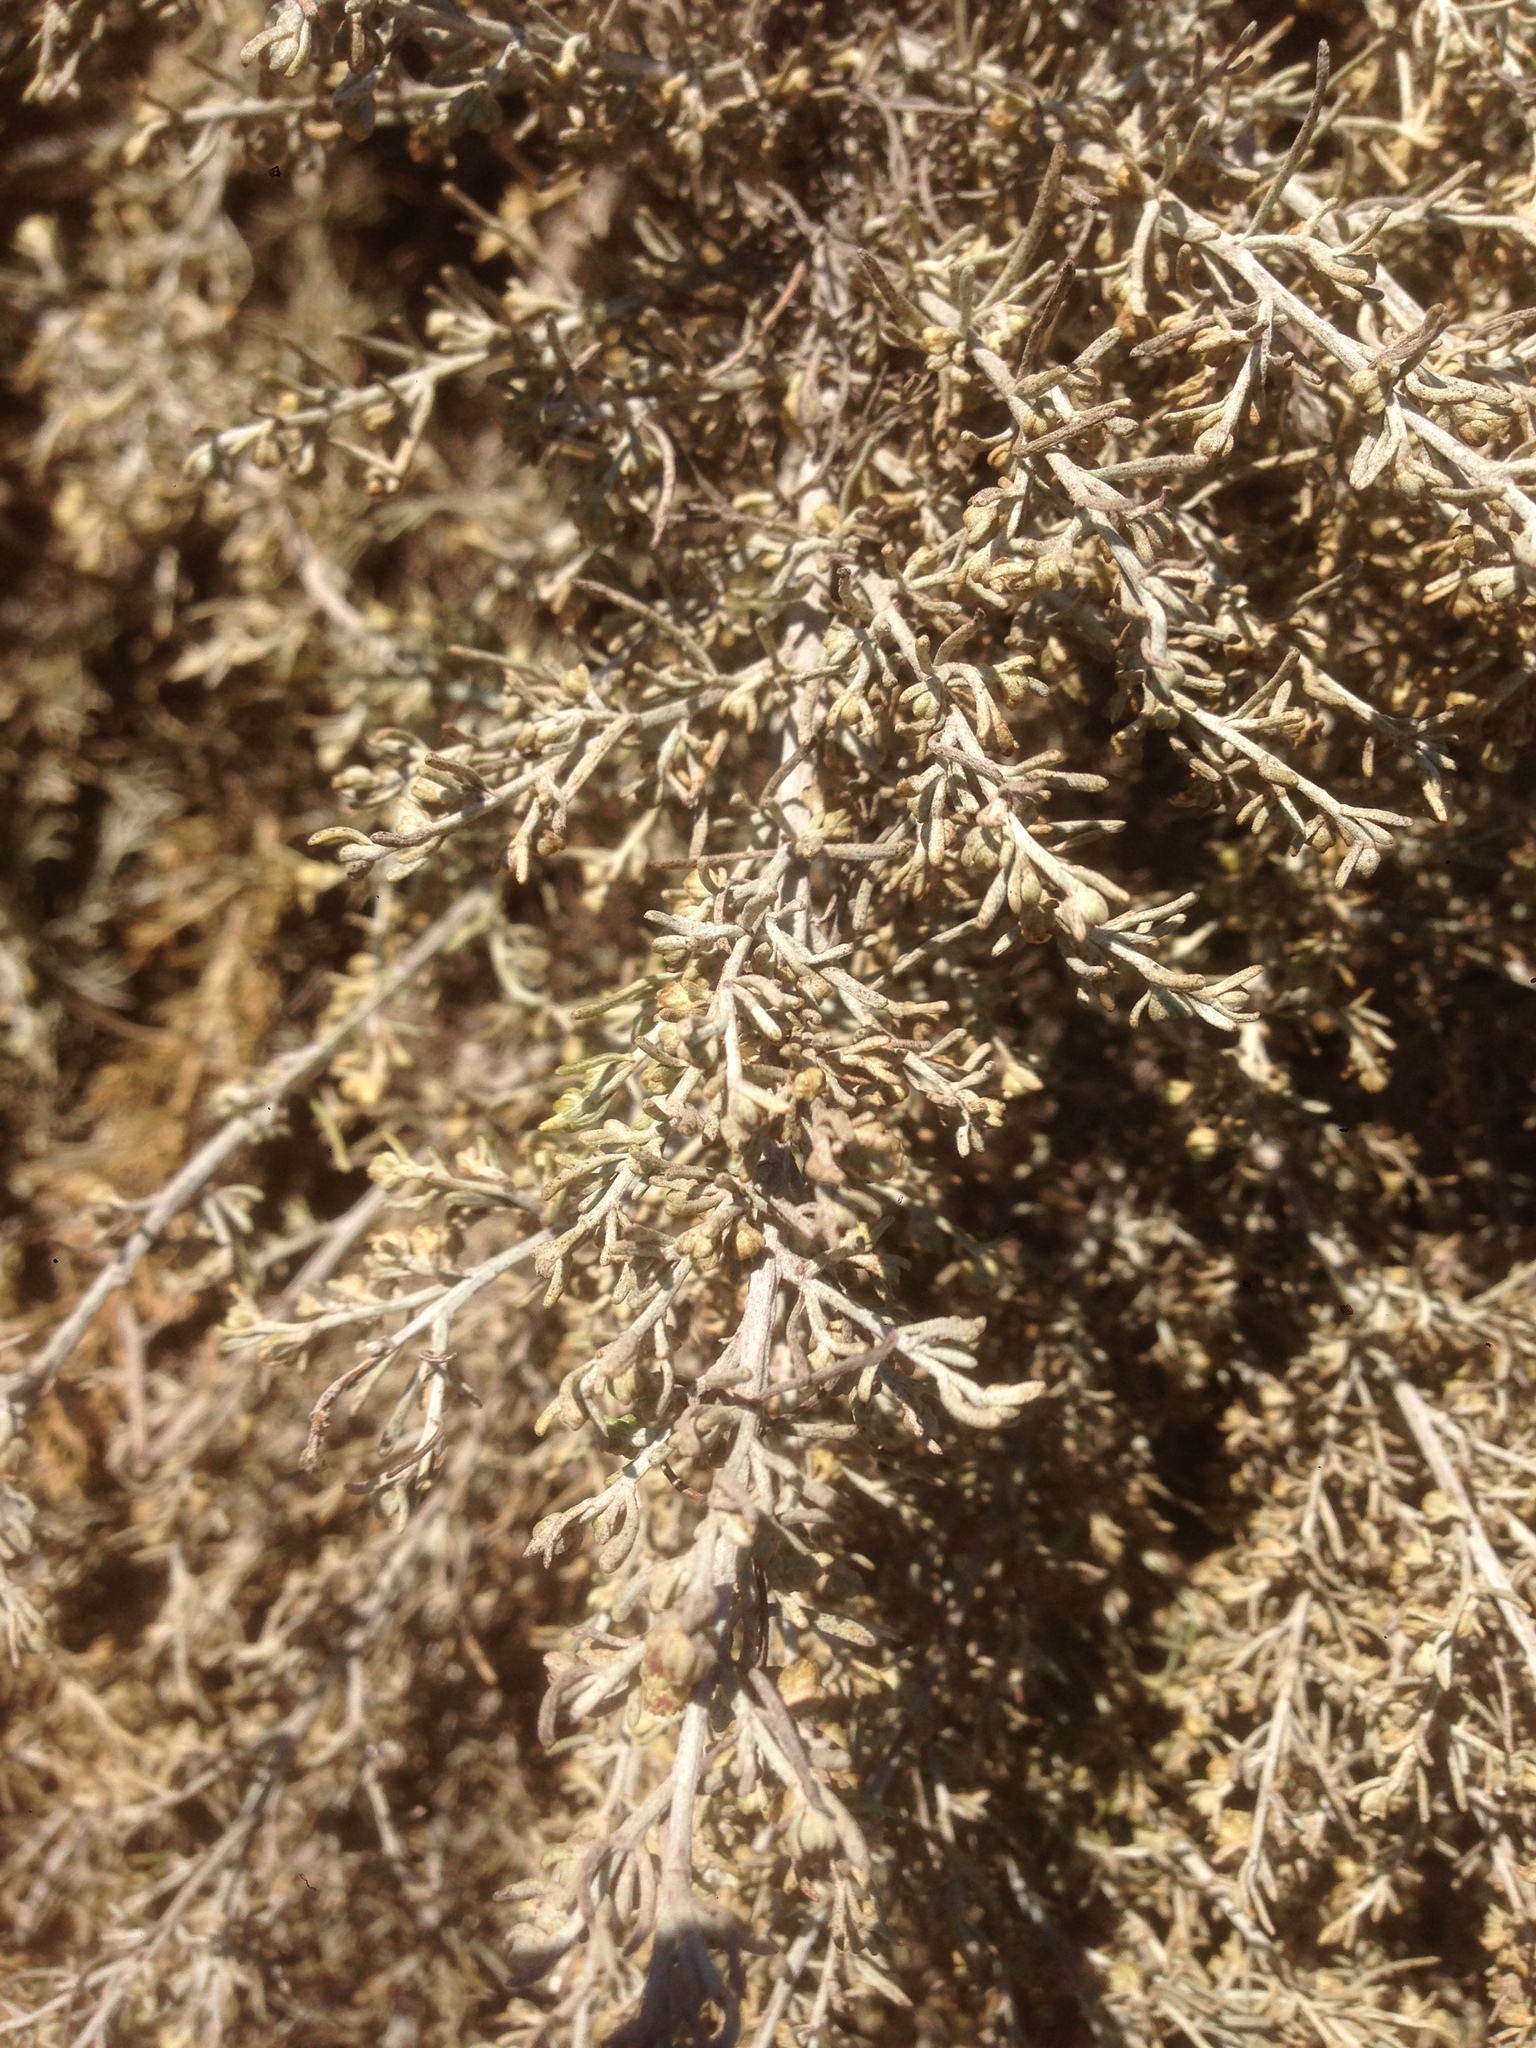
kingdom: Plantae
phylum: Tracheophyta
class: Magnoliopsida
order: Asterales
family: Asteraceae
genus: Artemisia
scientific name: Artemisia californica
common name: California sagebrush
